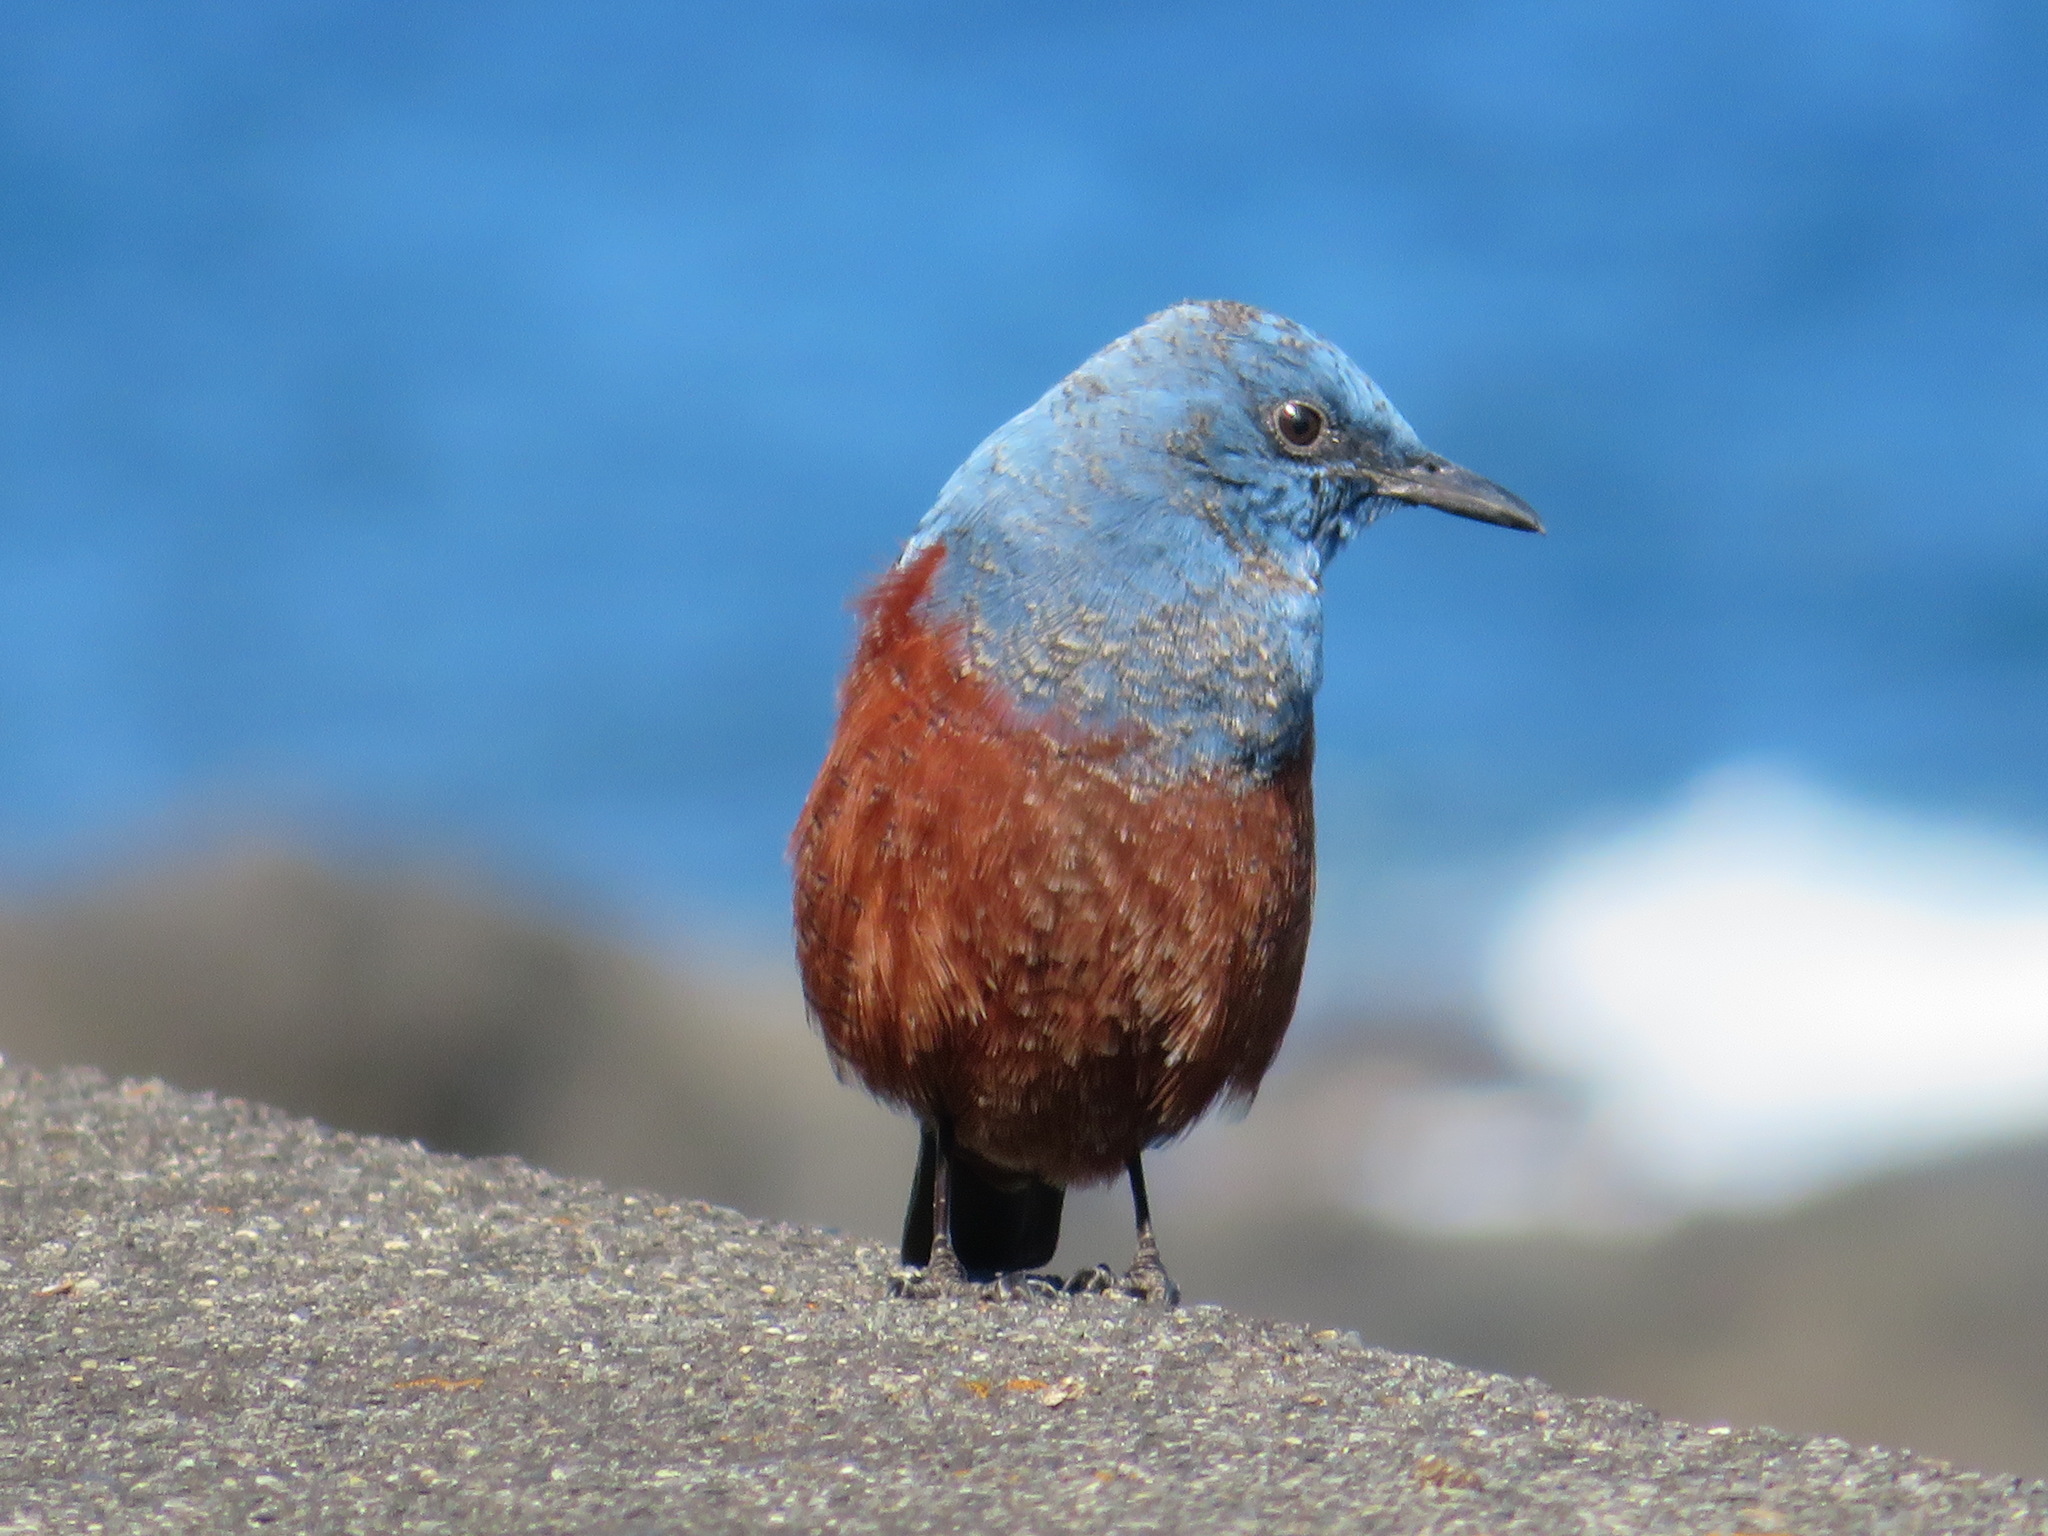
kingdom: Animalia
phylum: Chordata
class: Aves
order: Passeriformes
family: Muscicapidae
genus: Monticola
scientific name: Monticola solitarius
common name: Blue rock thrush
